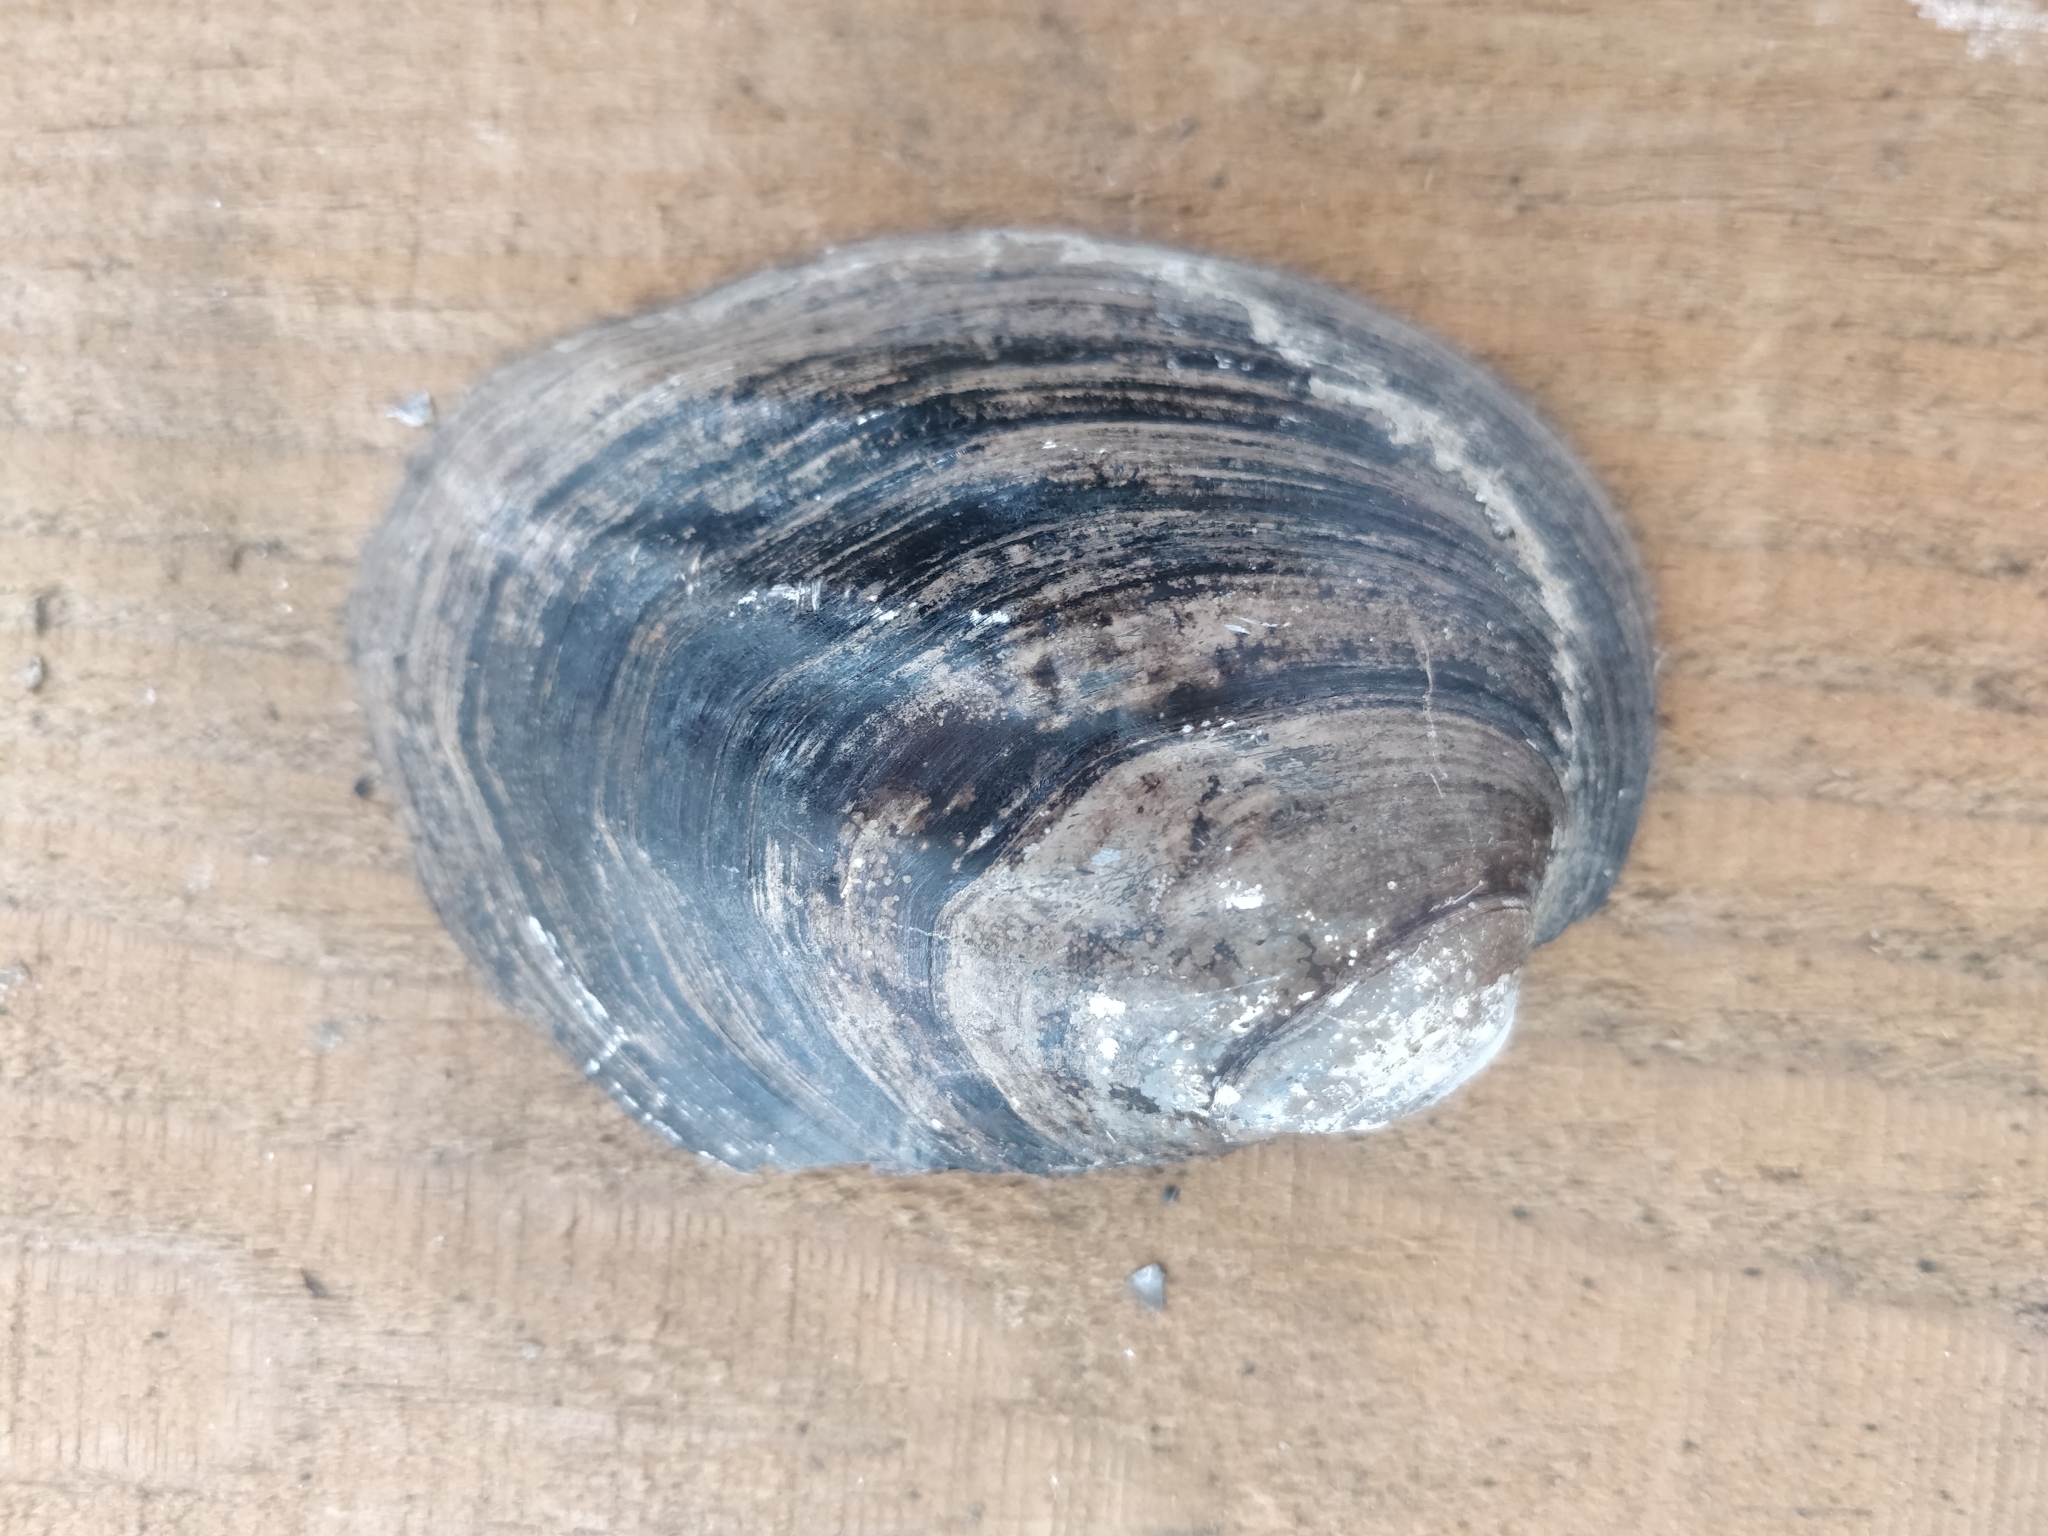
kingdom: Animalia
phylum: Mollusca
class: Bivalvia
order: Unionida
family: Unionidae
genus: Amblema
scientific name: Amblema plicata
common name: Threeridge
